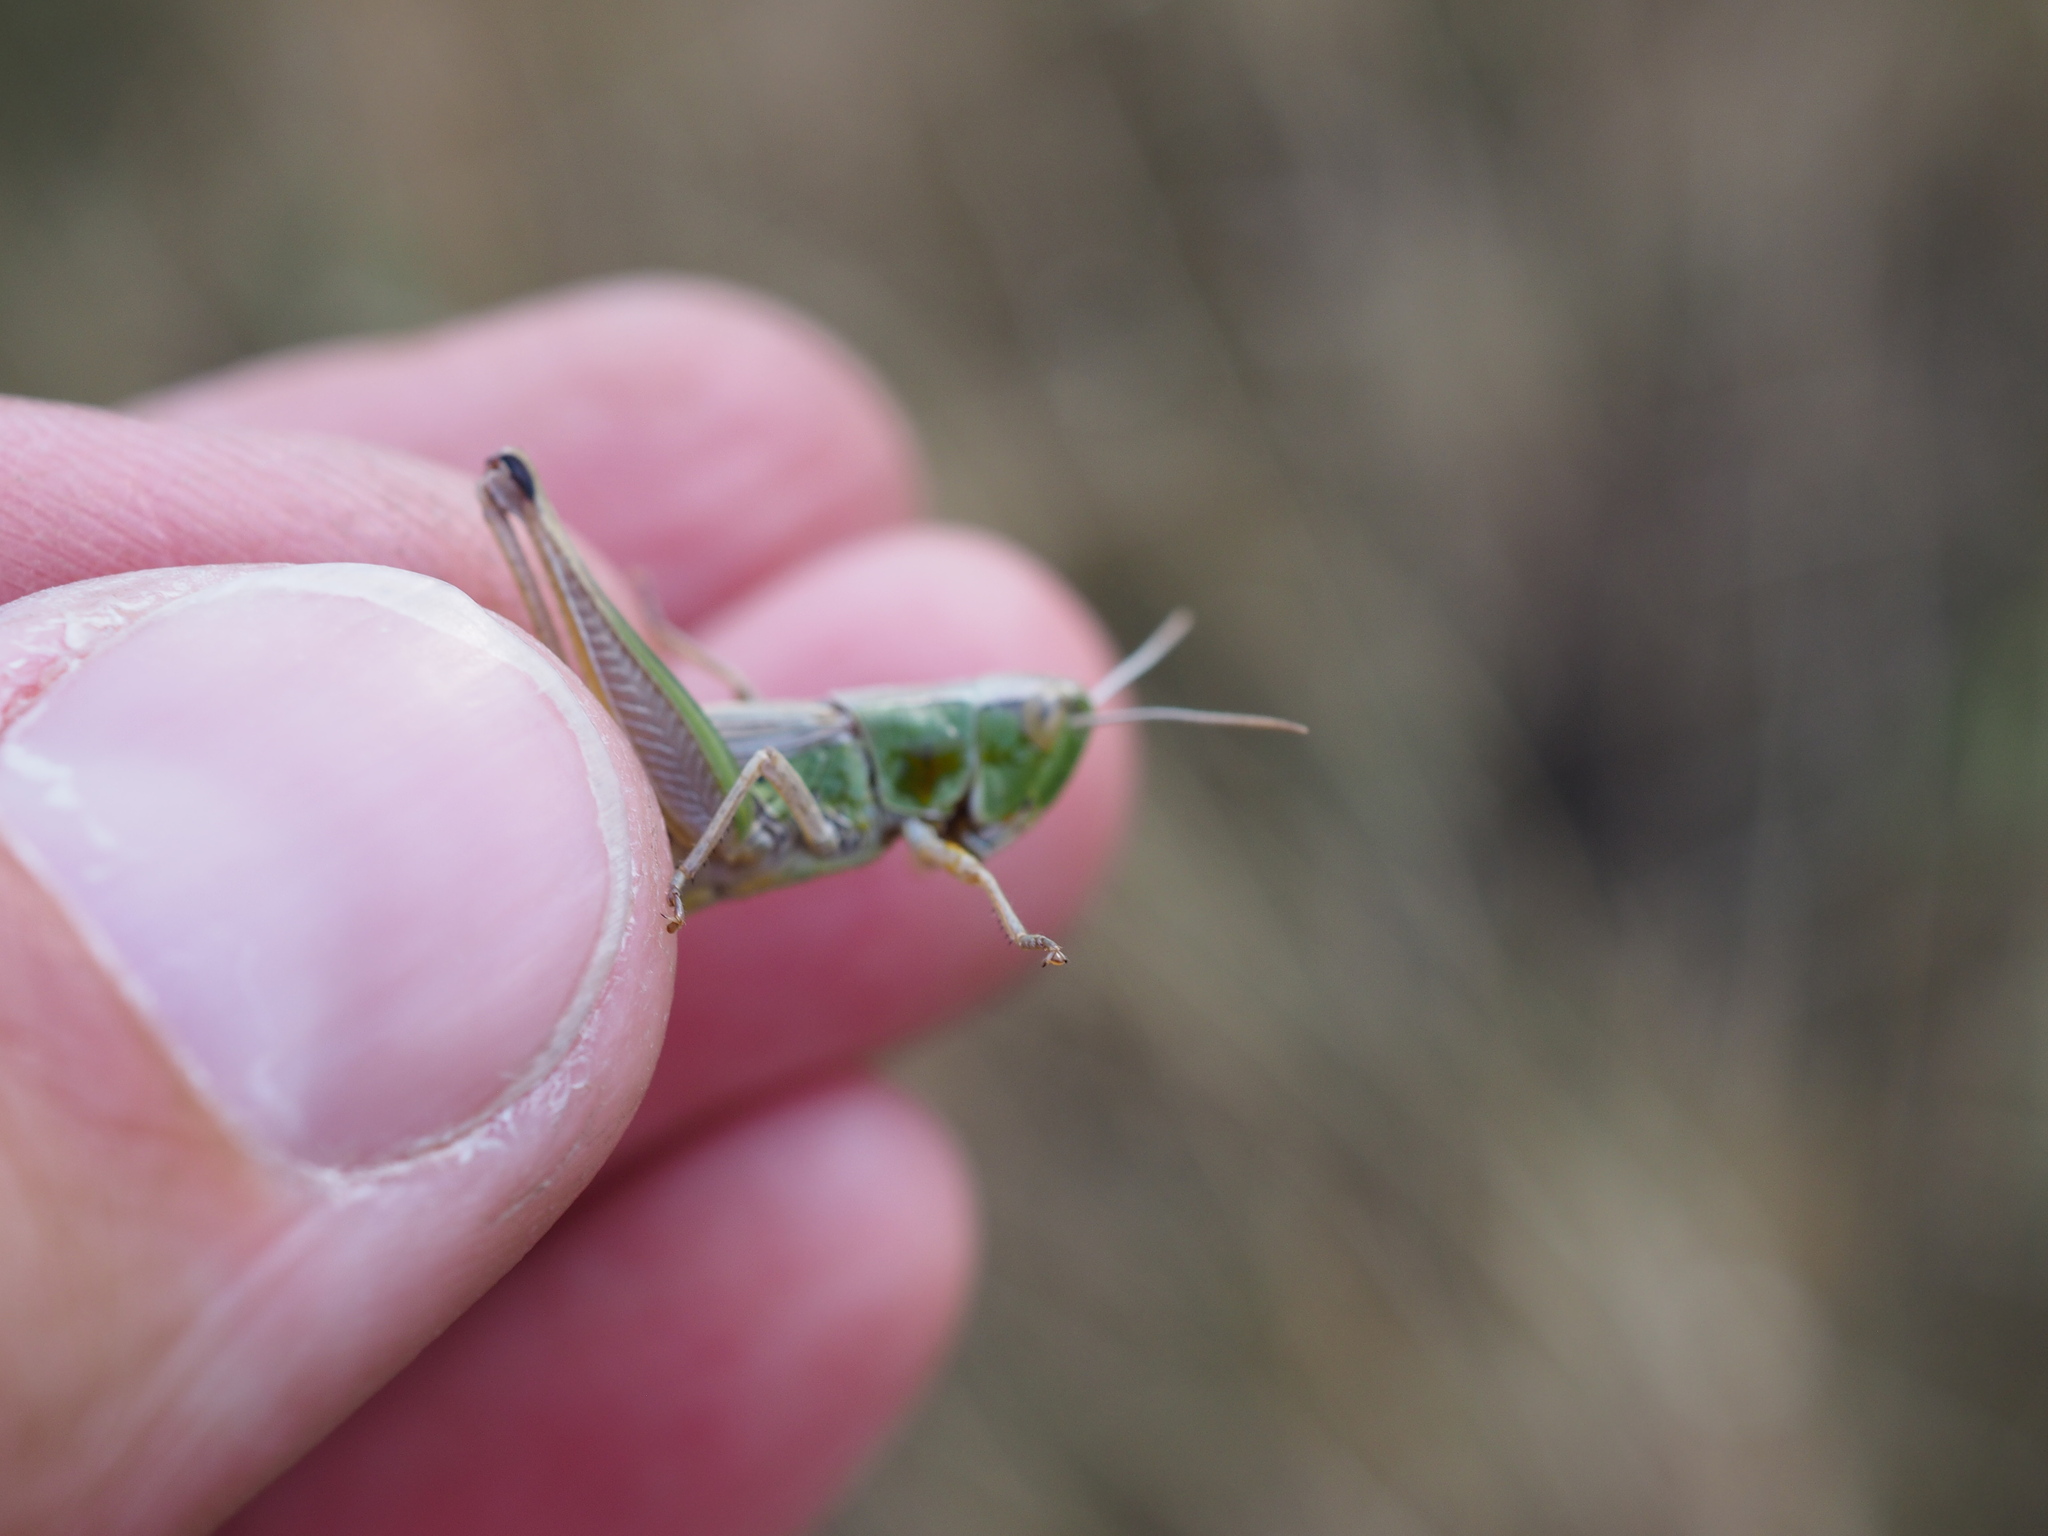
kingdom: Animalia
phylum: Arthropoda
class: Insecta
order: Orthoptera
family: Acrididae
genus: Pseudochorthippus
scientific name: Pseudochorthippus parallelus
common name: Meadow grasshopper
